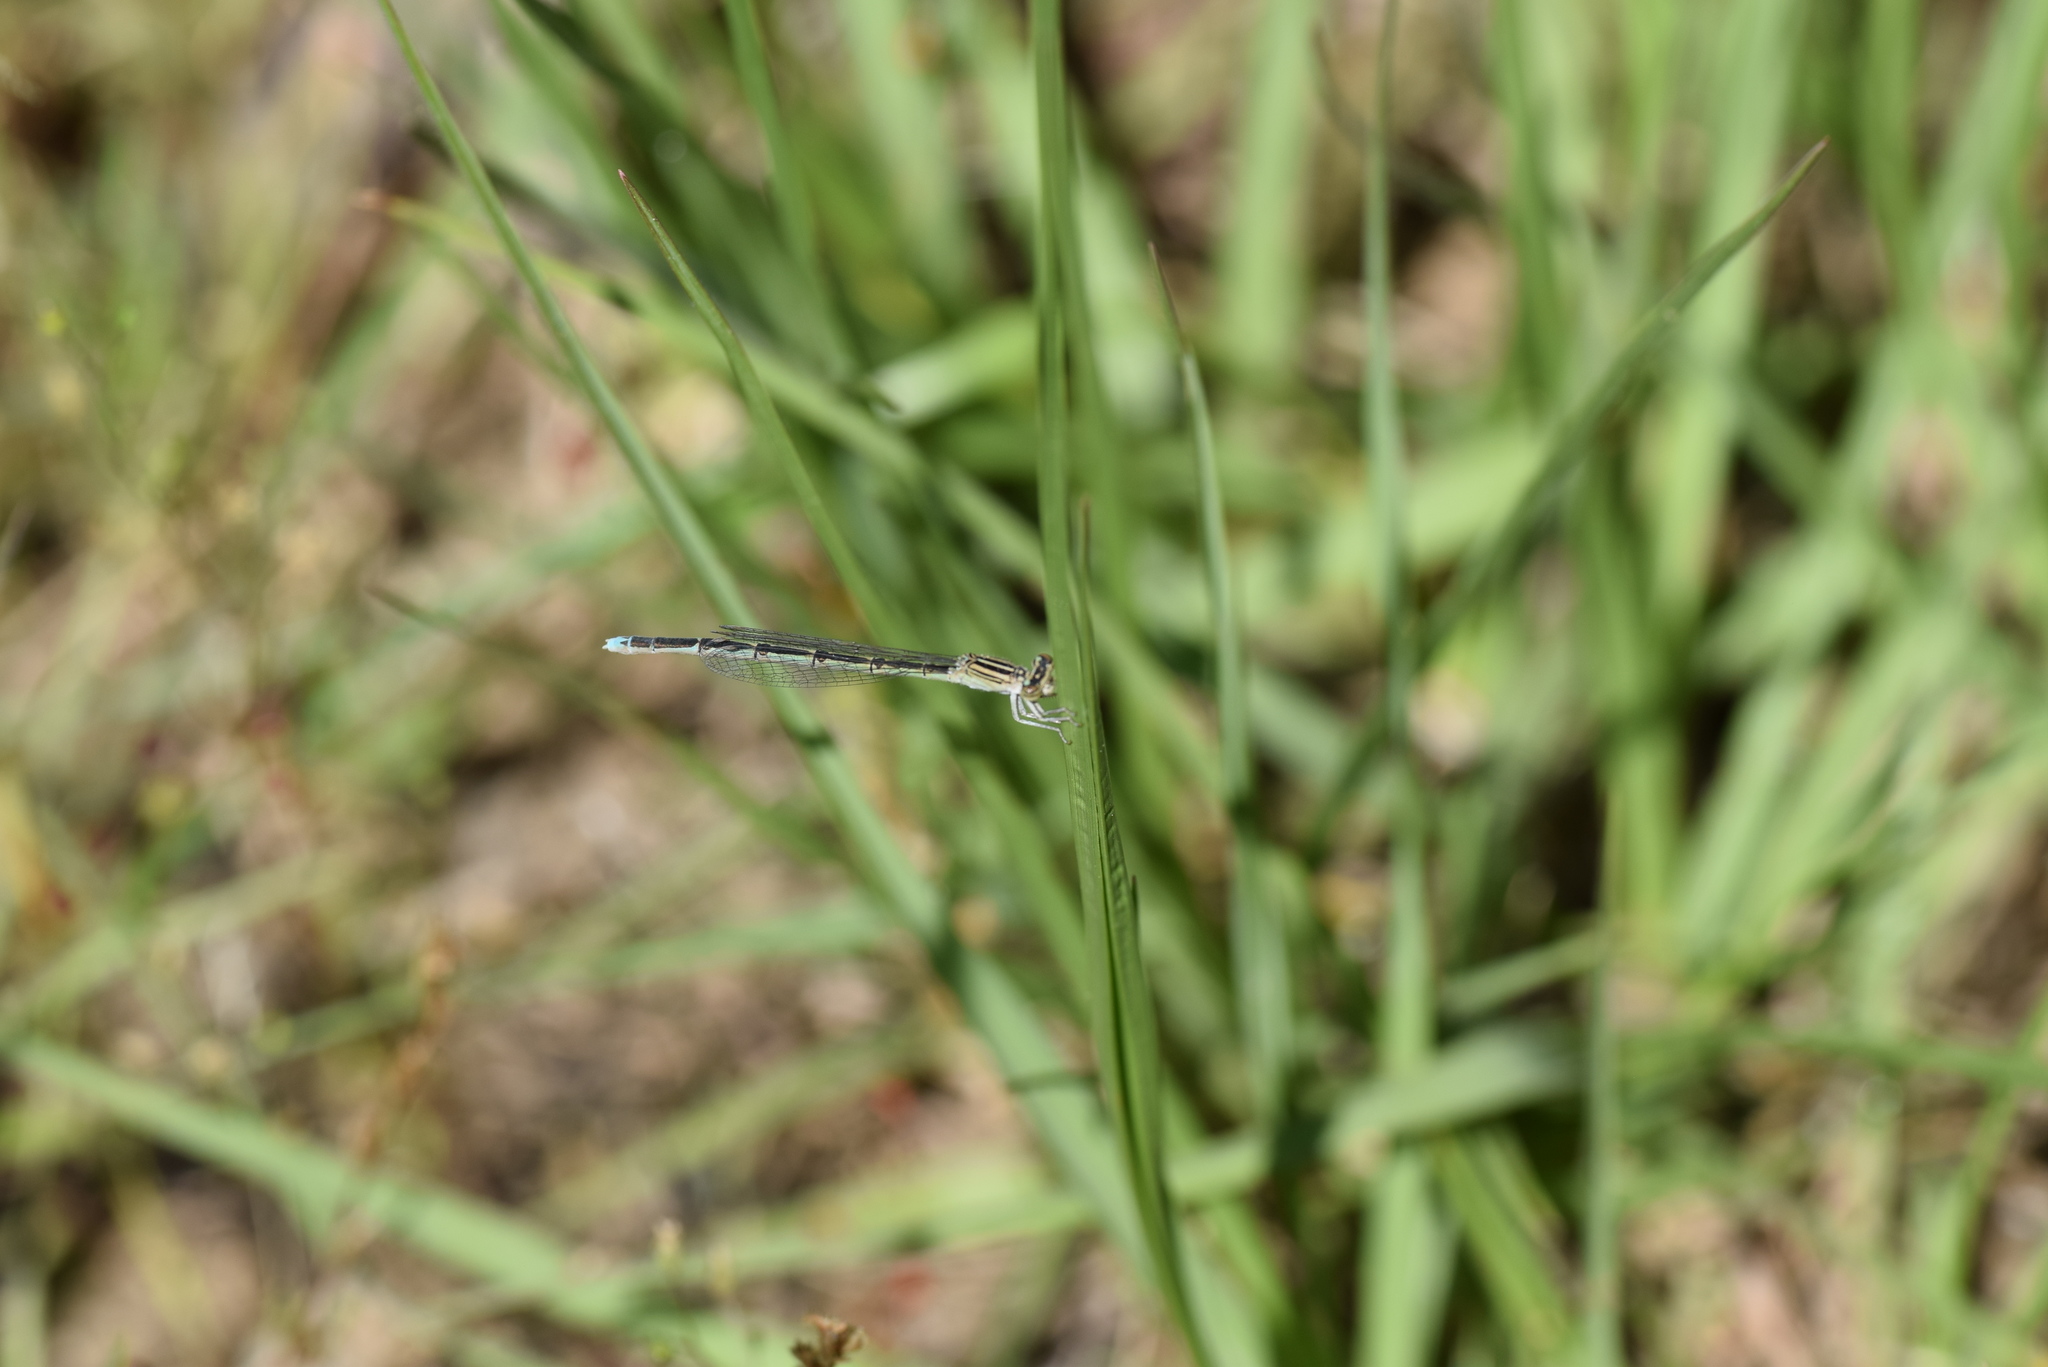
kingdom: Animalia
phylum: Arthropoda
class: Insecta
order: Odonata
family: Coenagrionidae
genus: Enallagma
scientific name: Enallagma basidens
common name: Double-striped bluet
